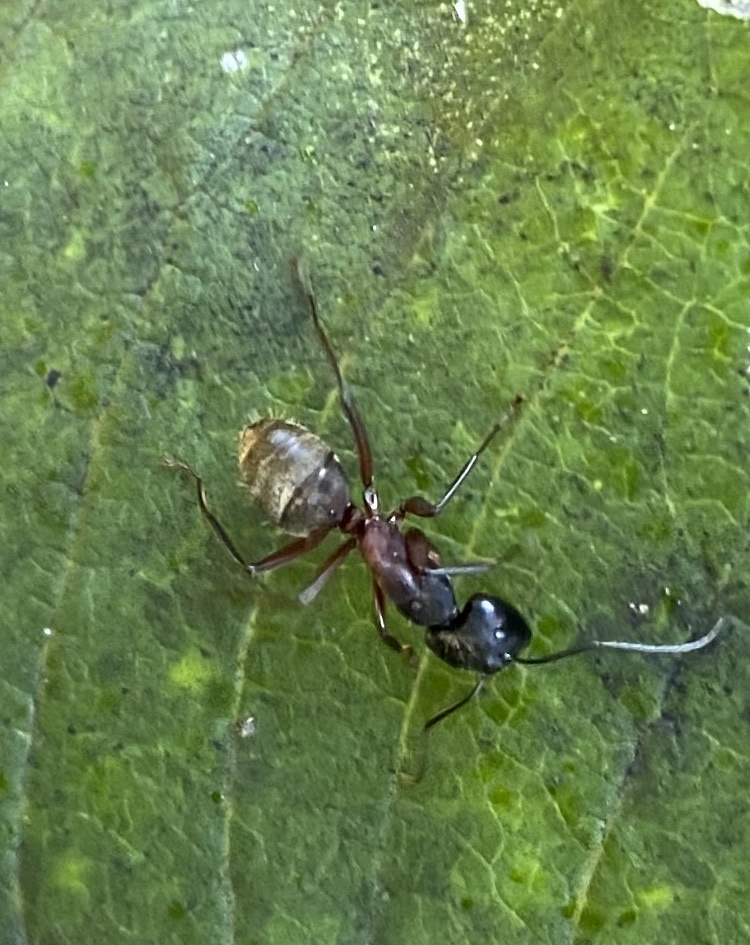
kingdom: Animalia
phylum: Arthropoda
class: Insecta
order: Hymenoptera
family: Formicidae
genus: Camponotus
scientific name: Camponotus chromaiodes
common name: Red carpenter ant
